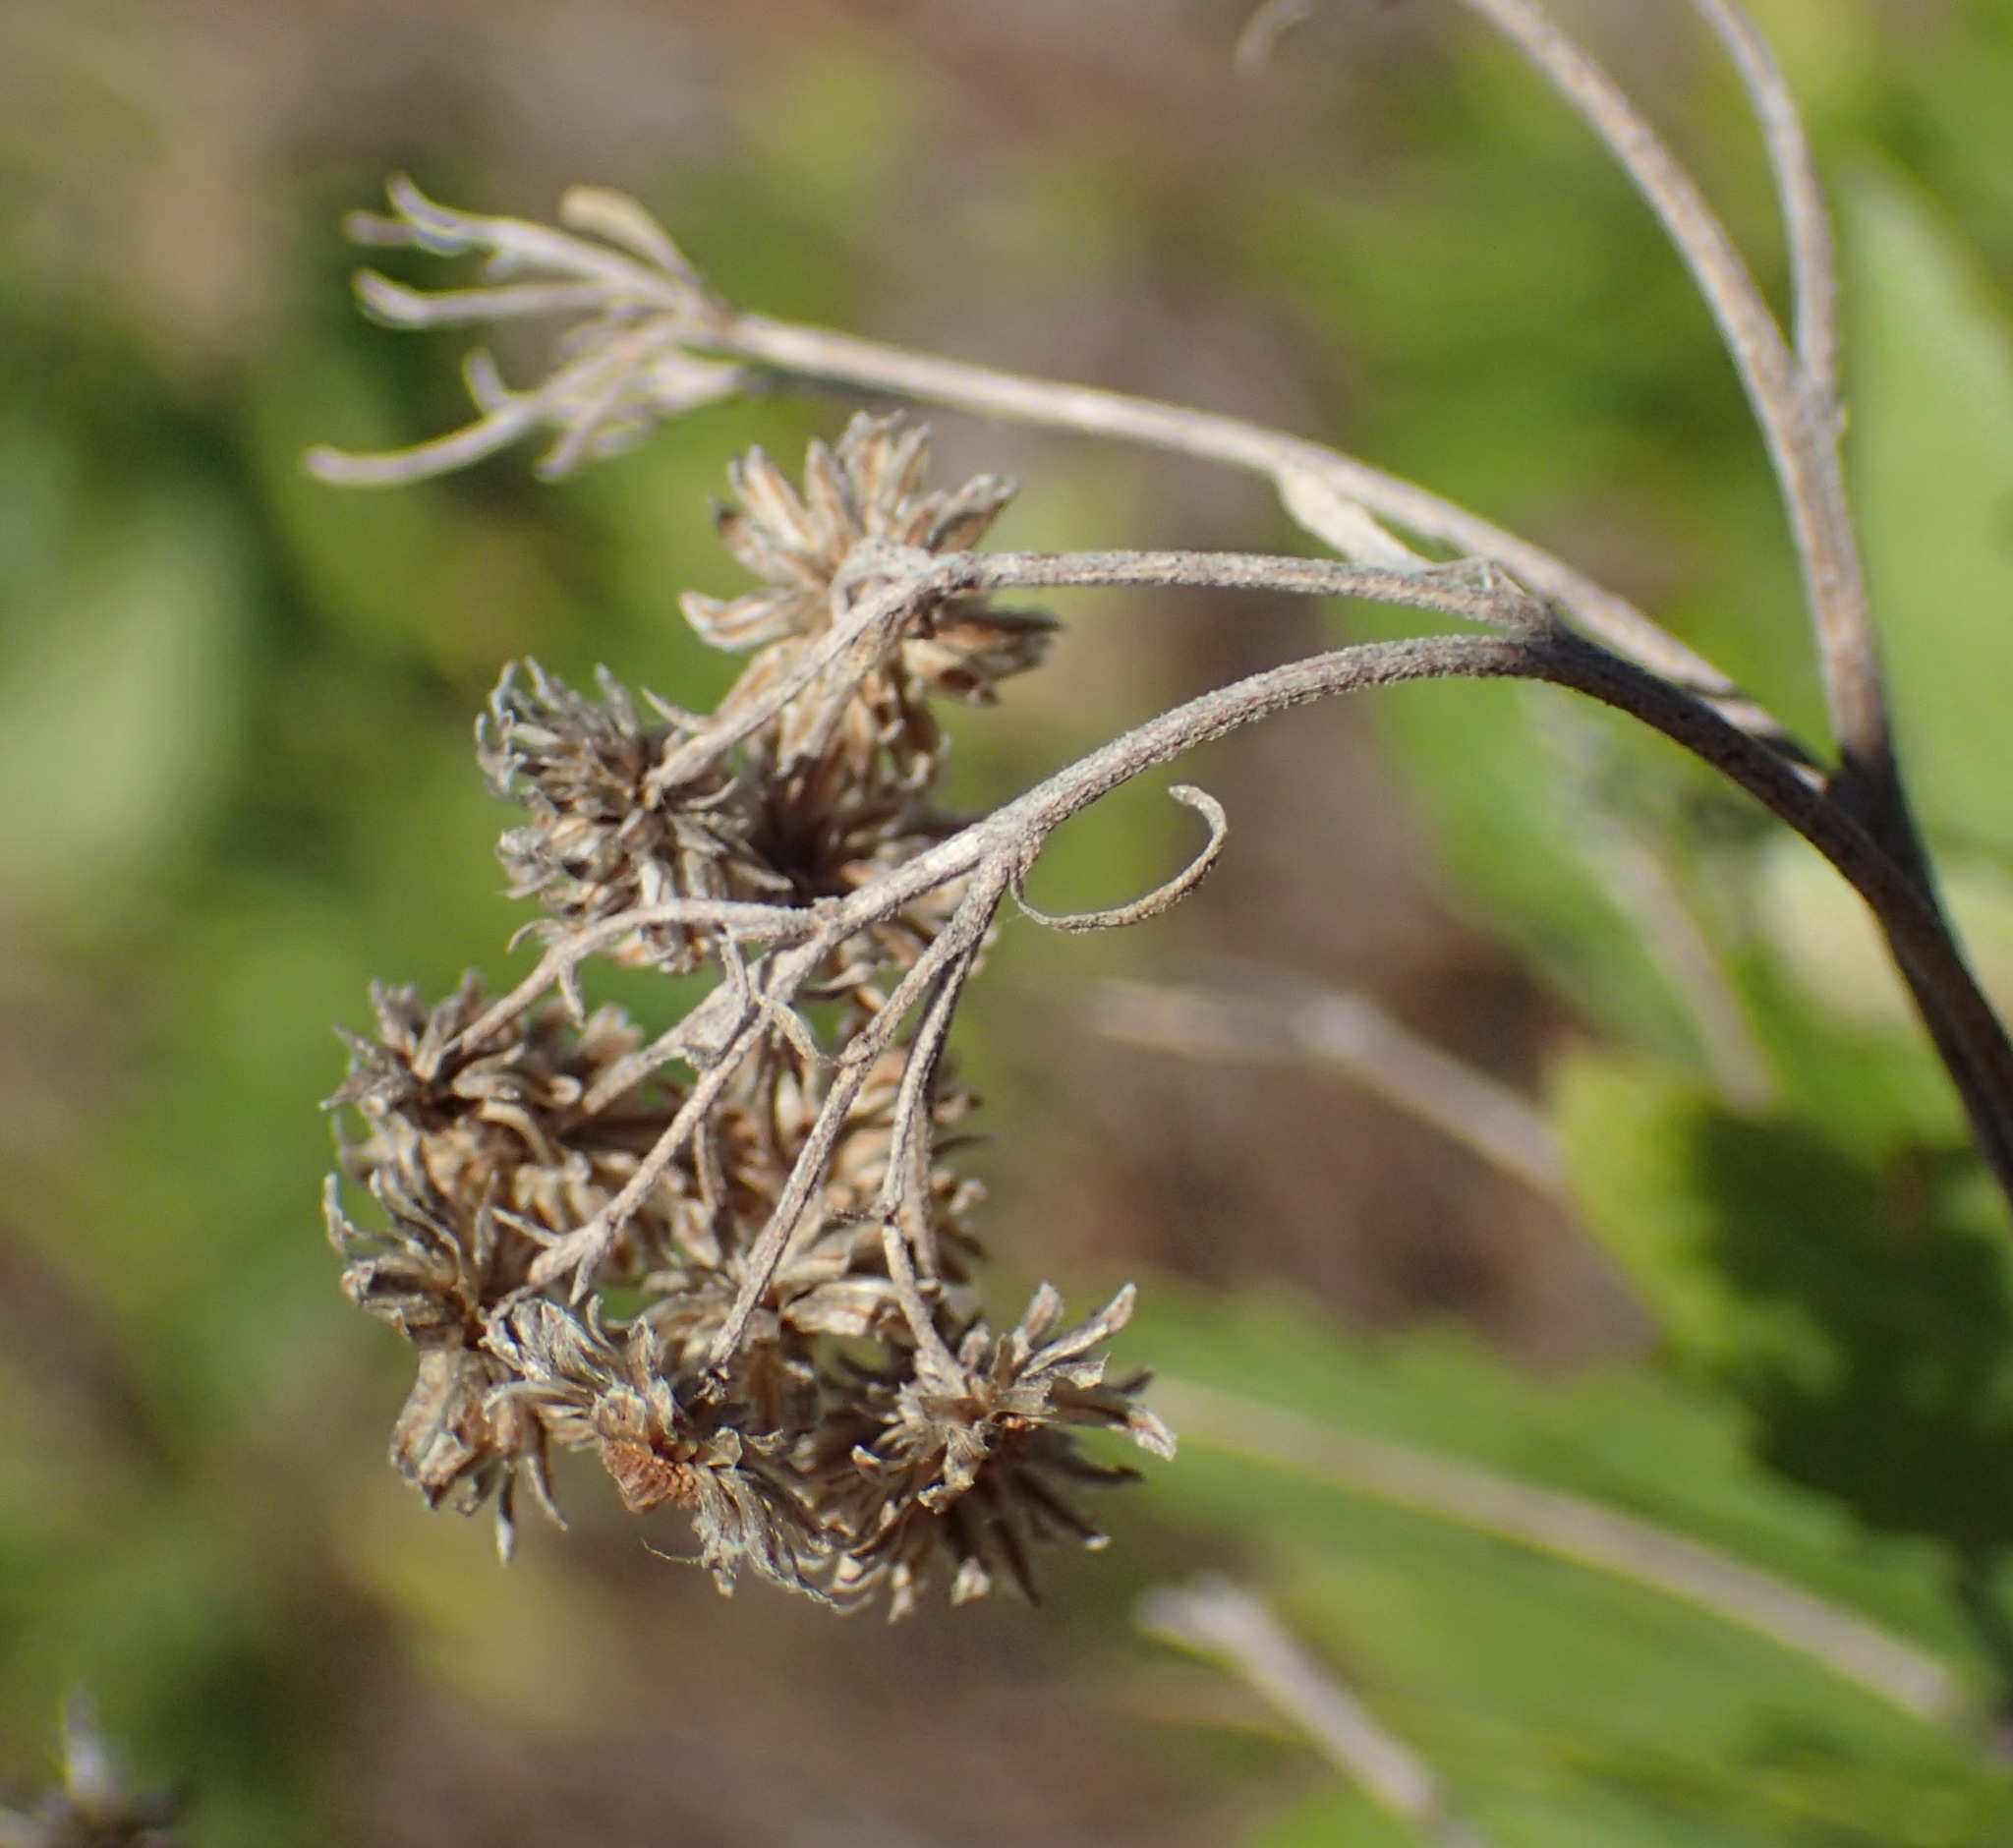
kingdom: Plantae
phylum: Tracheophyta
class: Magnoliopsida
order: Asterales
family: Asteraceae
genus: Nidorella
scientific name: Nidorella ivifolia
